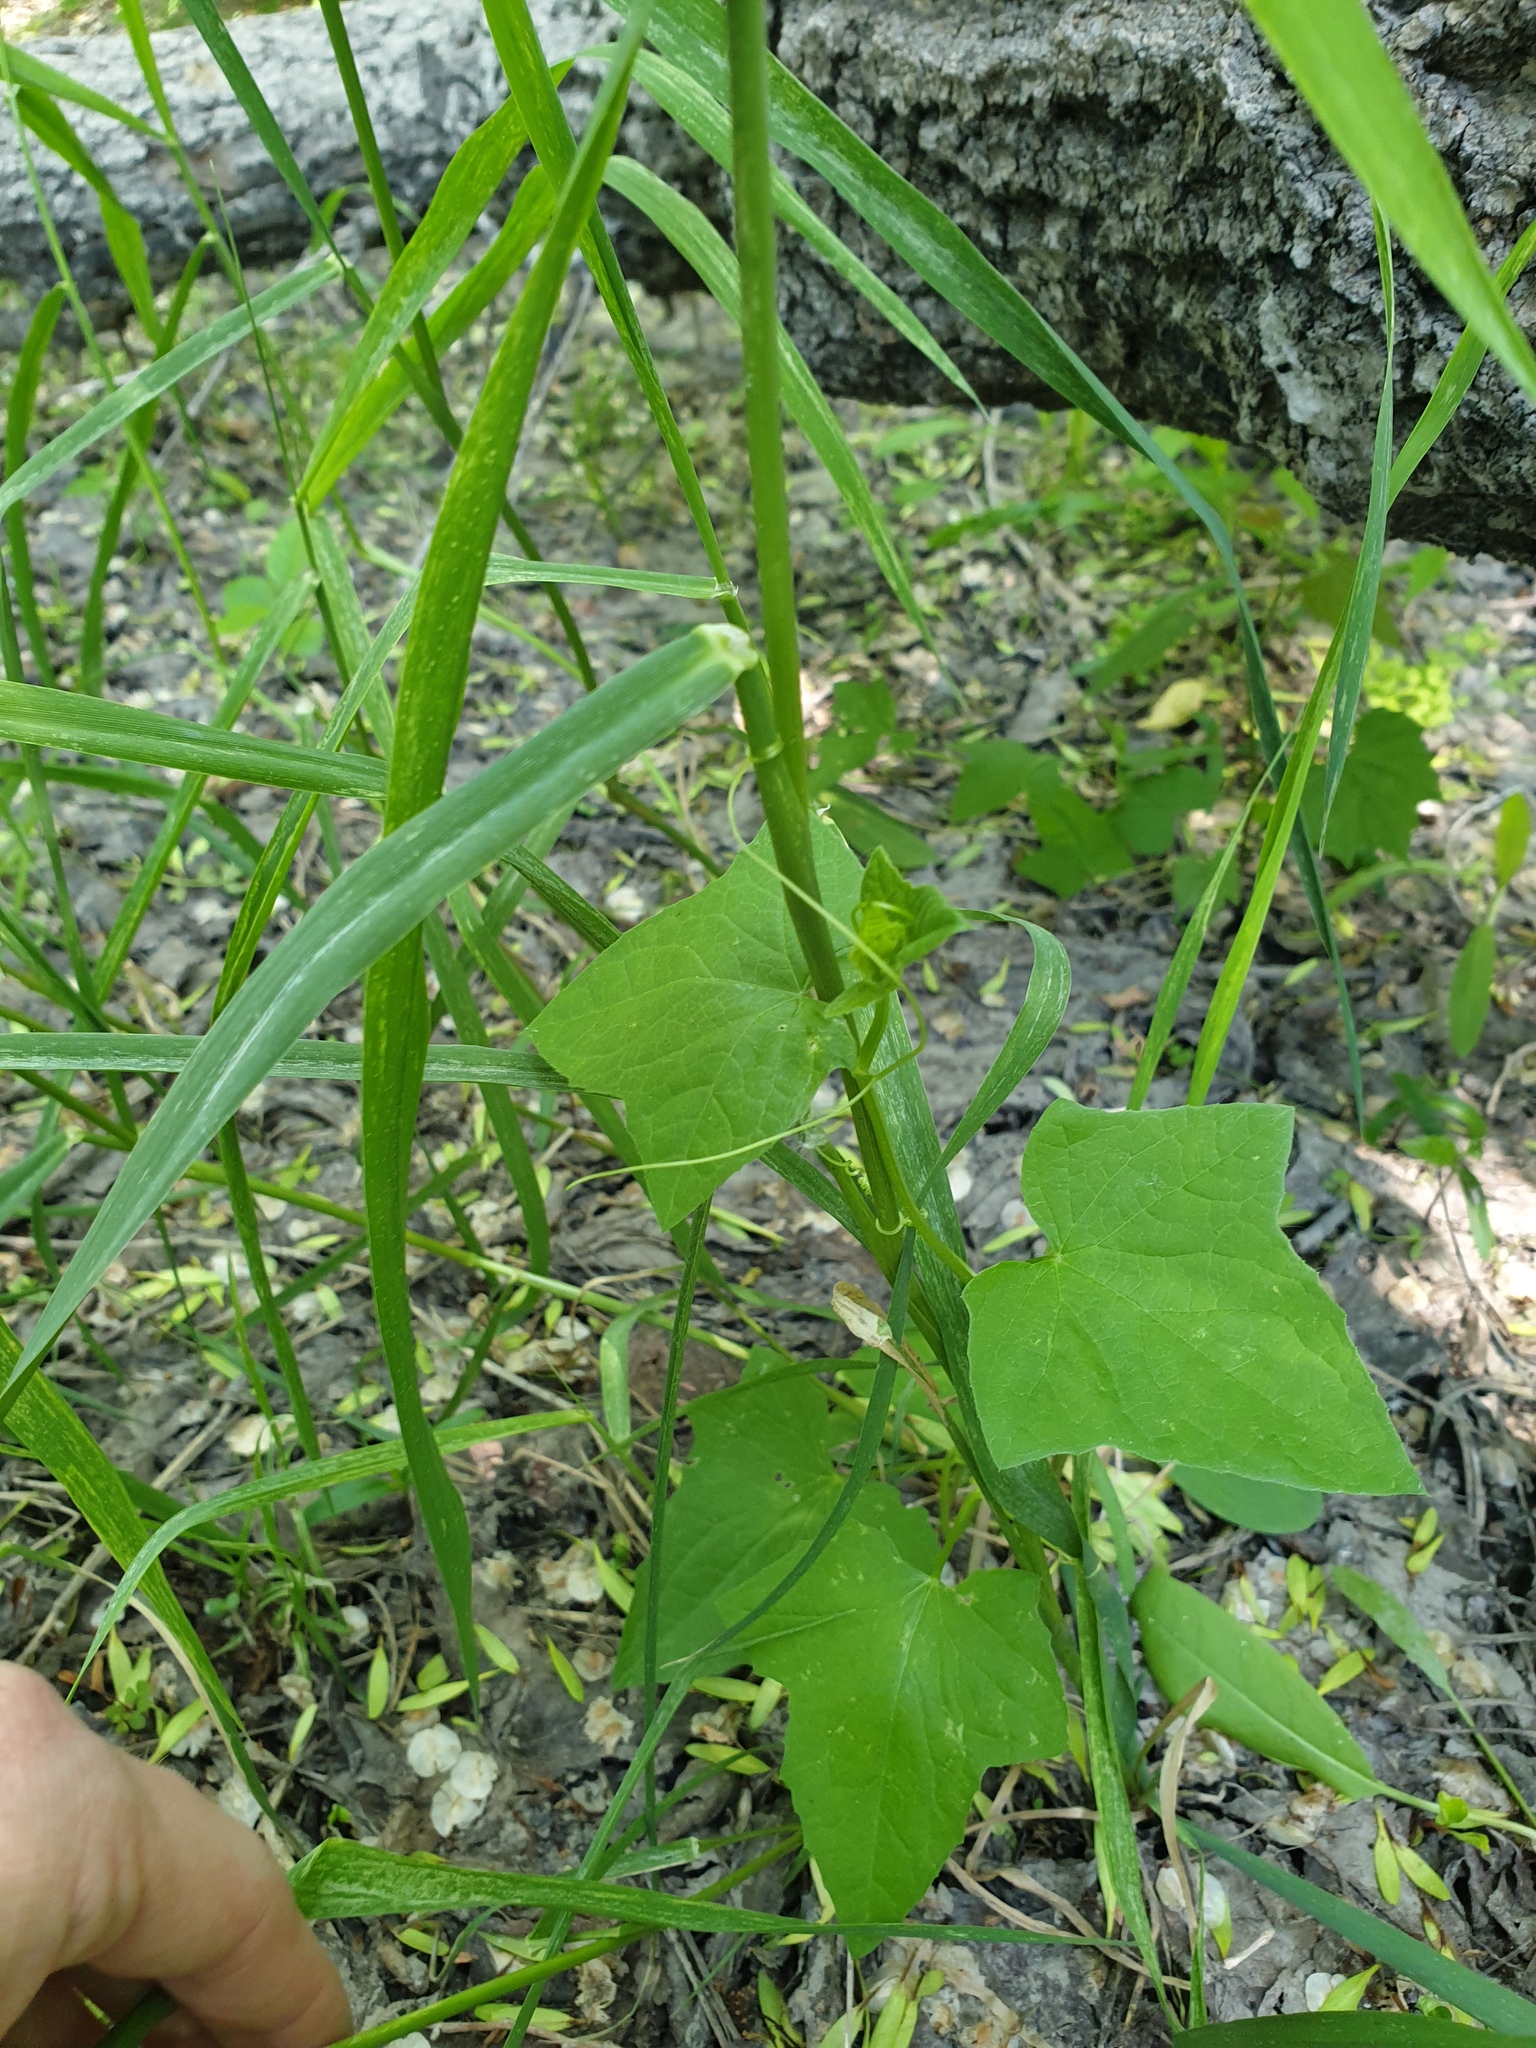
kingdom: Plantae
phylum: Tracheophyta
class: Magnoliopsida
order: Cucurbitales
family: Cucurbitaceae
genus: Echinocystis
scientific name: Echinocystis lobata
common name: Wild cucumber
